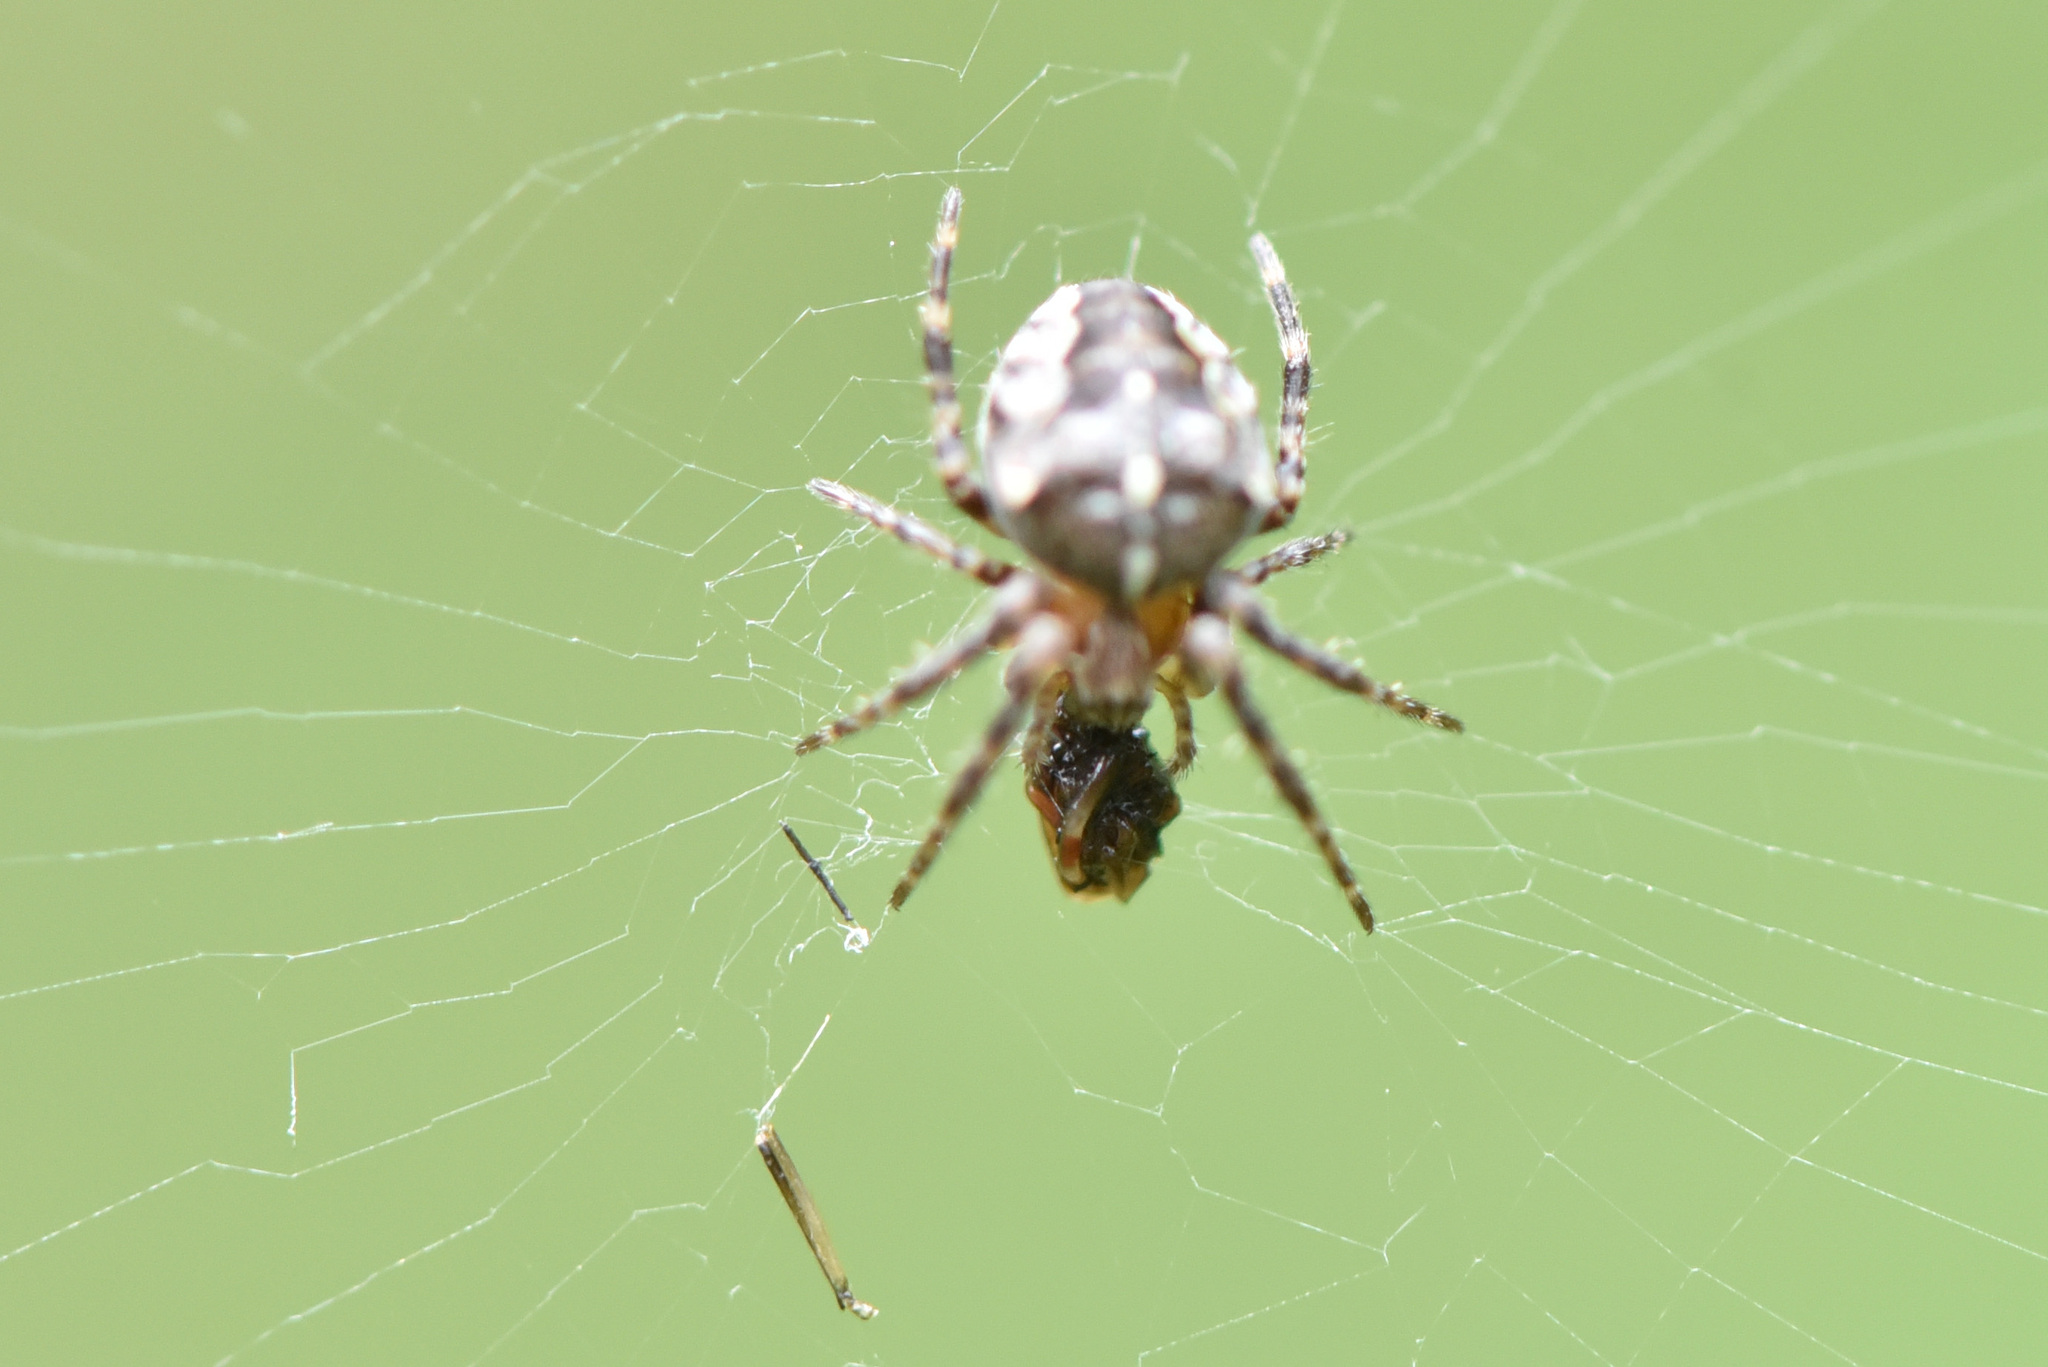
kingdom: Animalia
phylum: Arthropoda
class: Arachnida
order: Araneae
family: Araneidae
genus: Araneus
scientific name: Araneus diadematus
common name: Cross orbweaver
